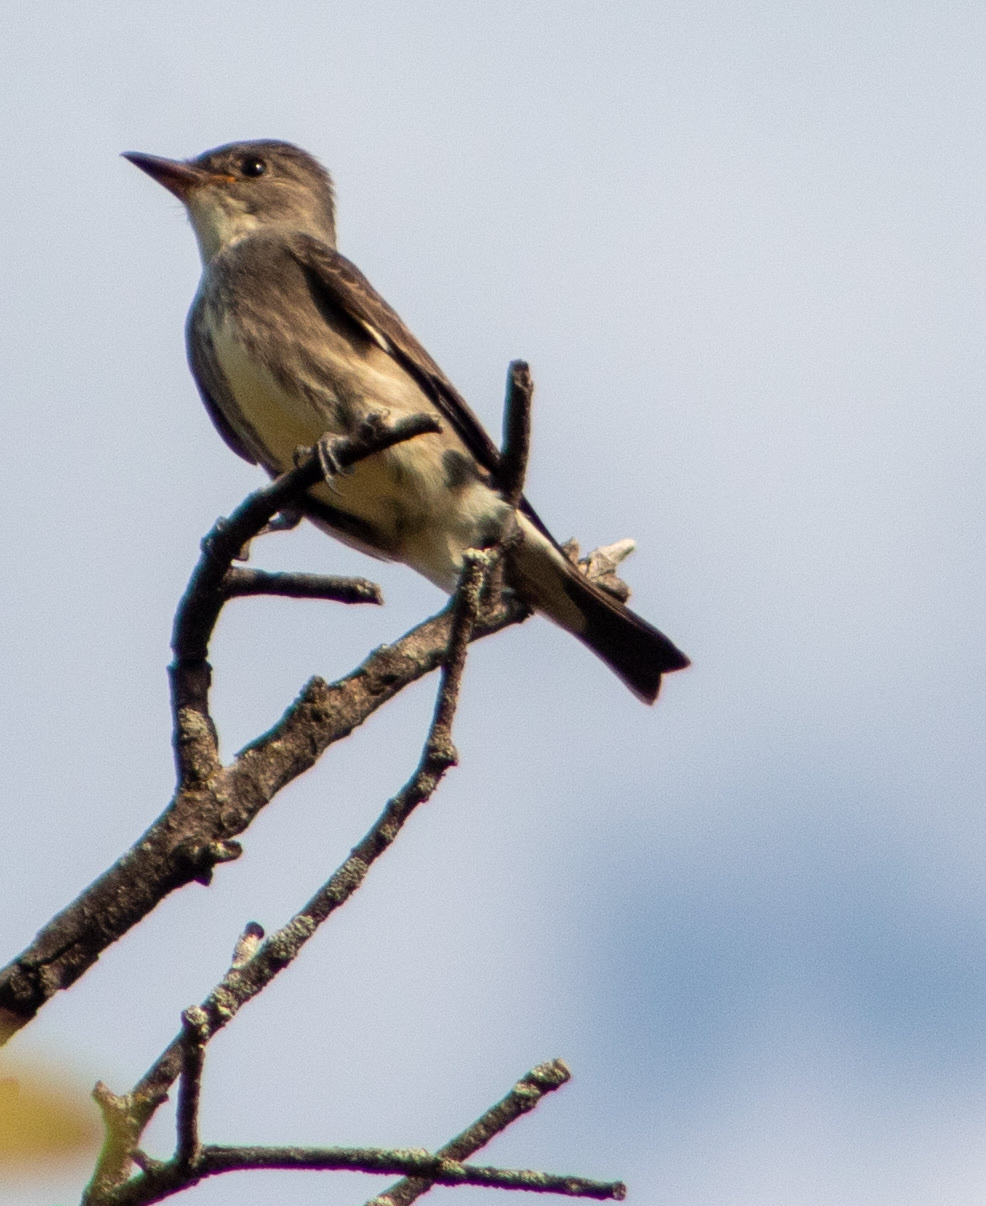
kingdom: Animalia
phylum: Chordata
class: Aves
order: Passeriformes
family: Tyrannidae
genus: Contopus
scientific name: Contopus cooperi
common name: Olive-sided flycatcher
